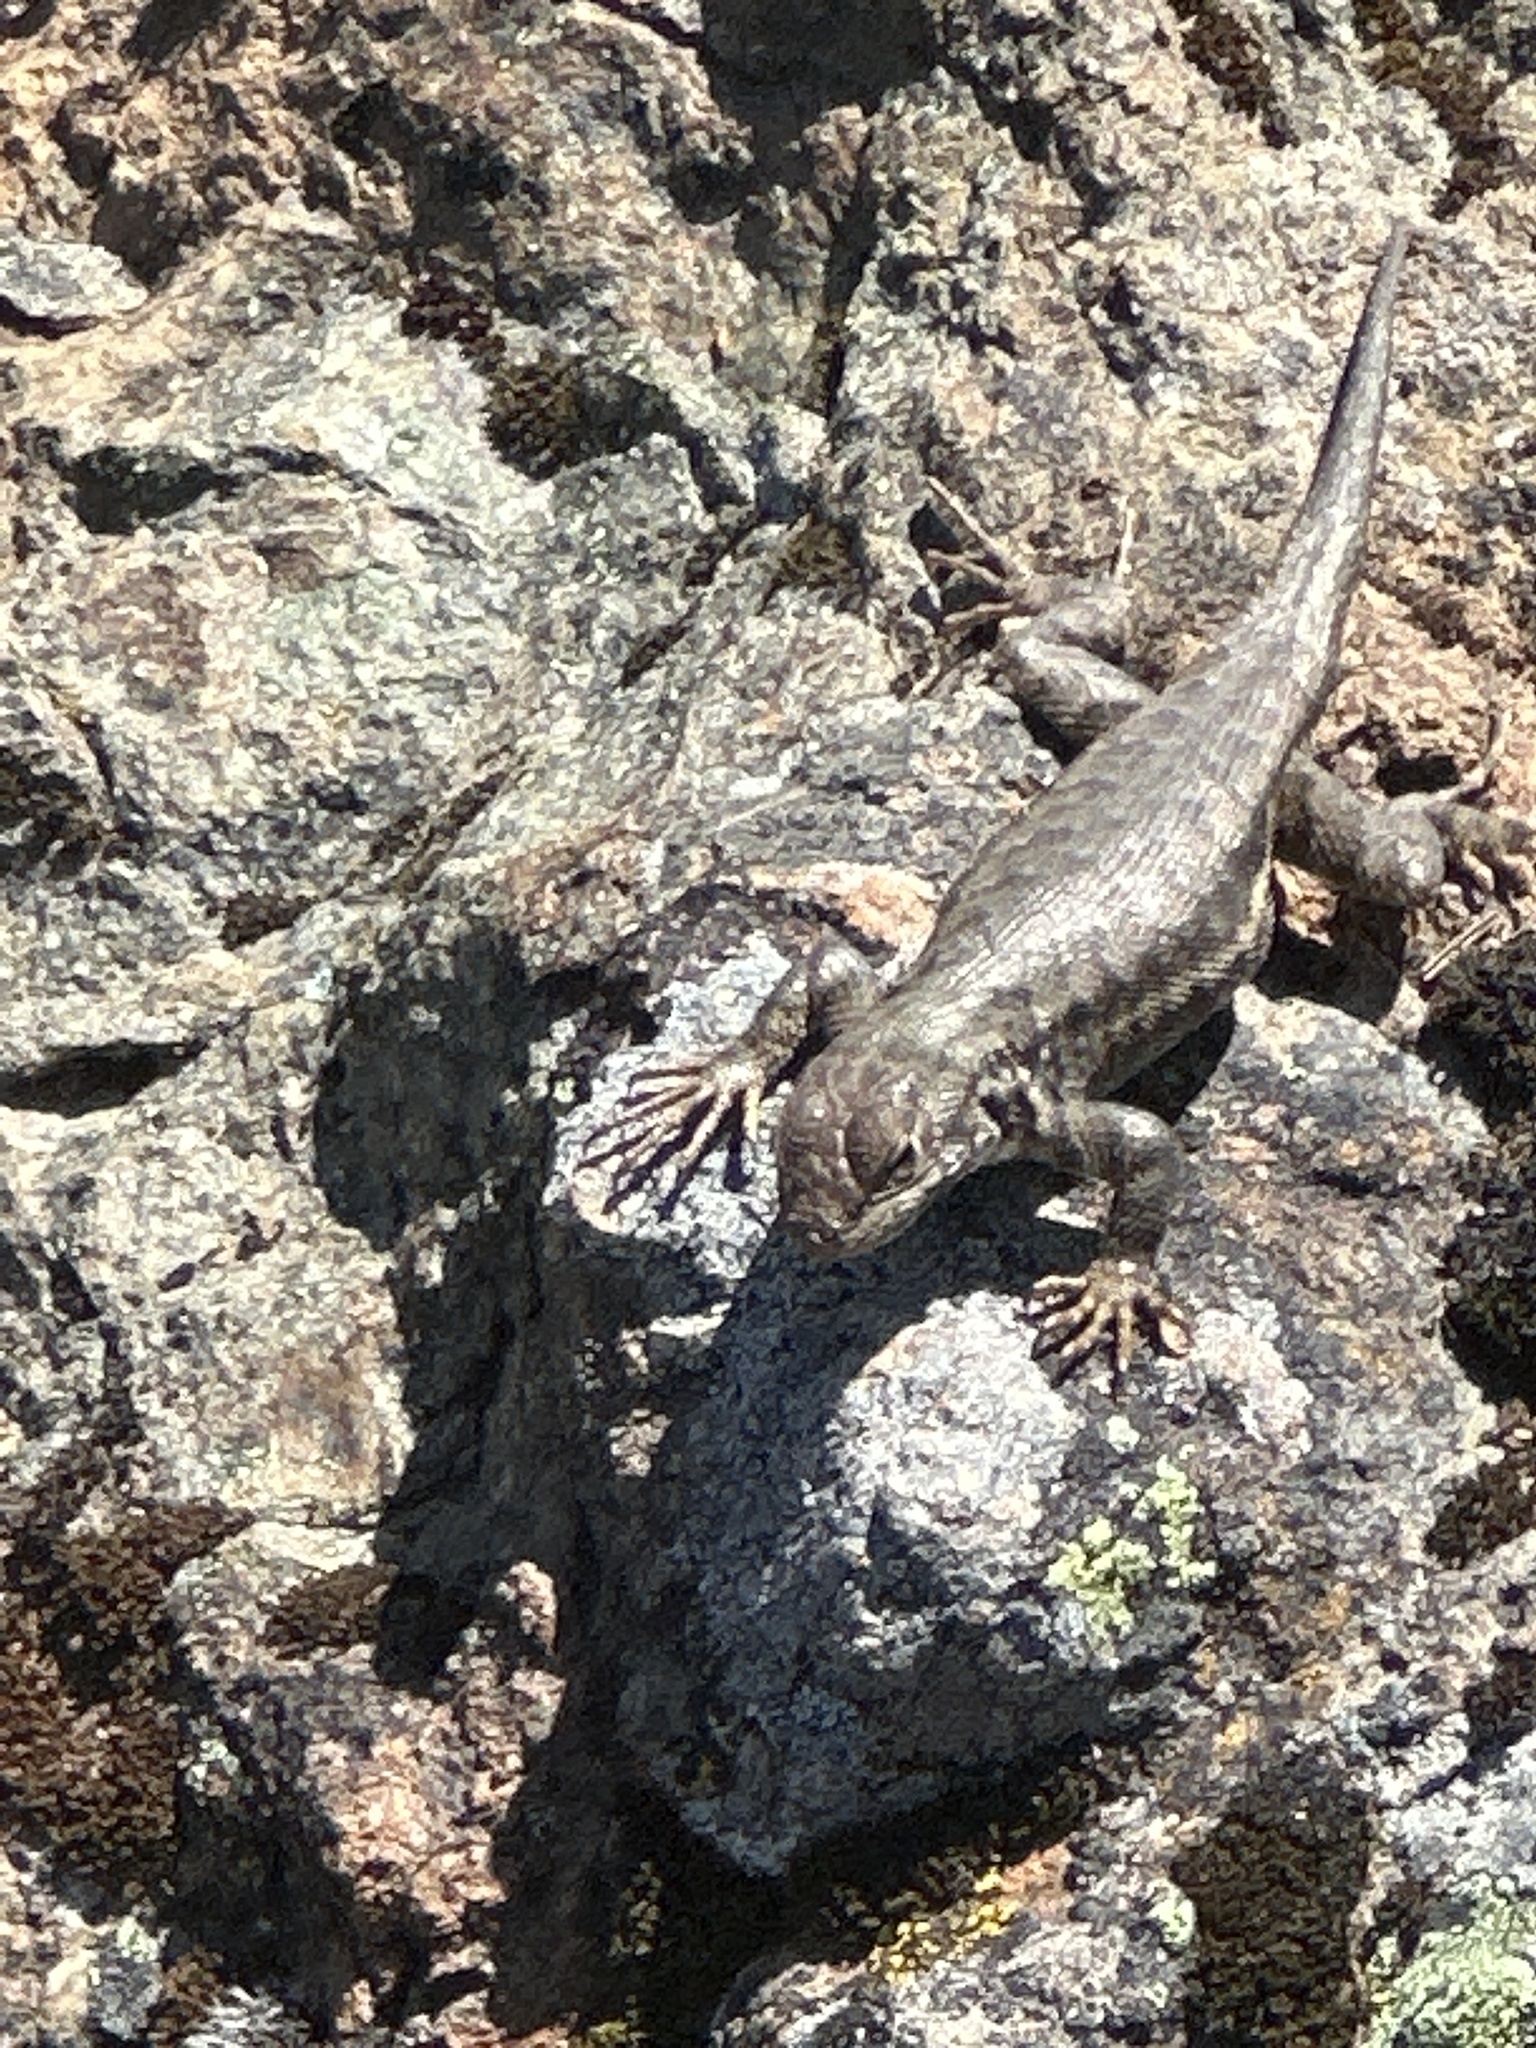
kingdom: Animalia
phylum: Chordata
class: Squamata
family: Phrynosomatidae
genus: Sceloporus
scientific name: Sceloporus graciosus
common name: Sagebrush lizard
